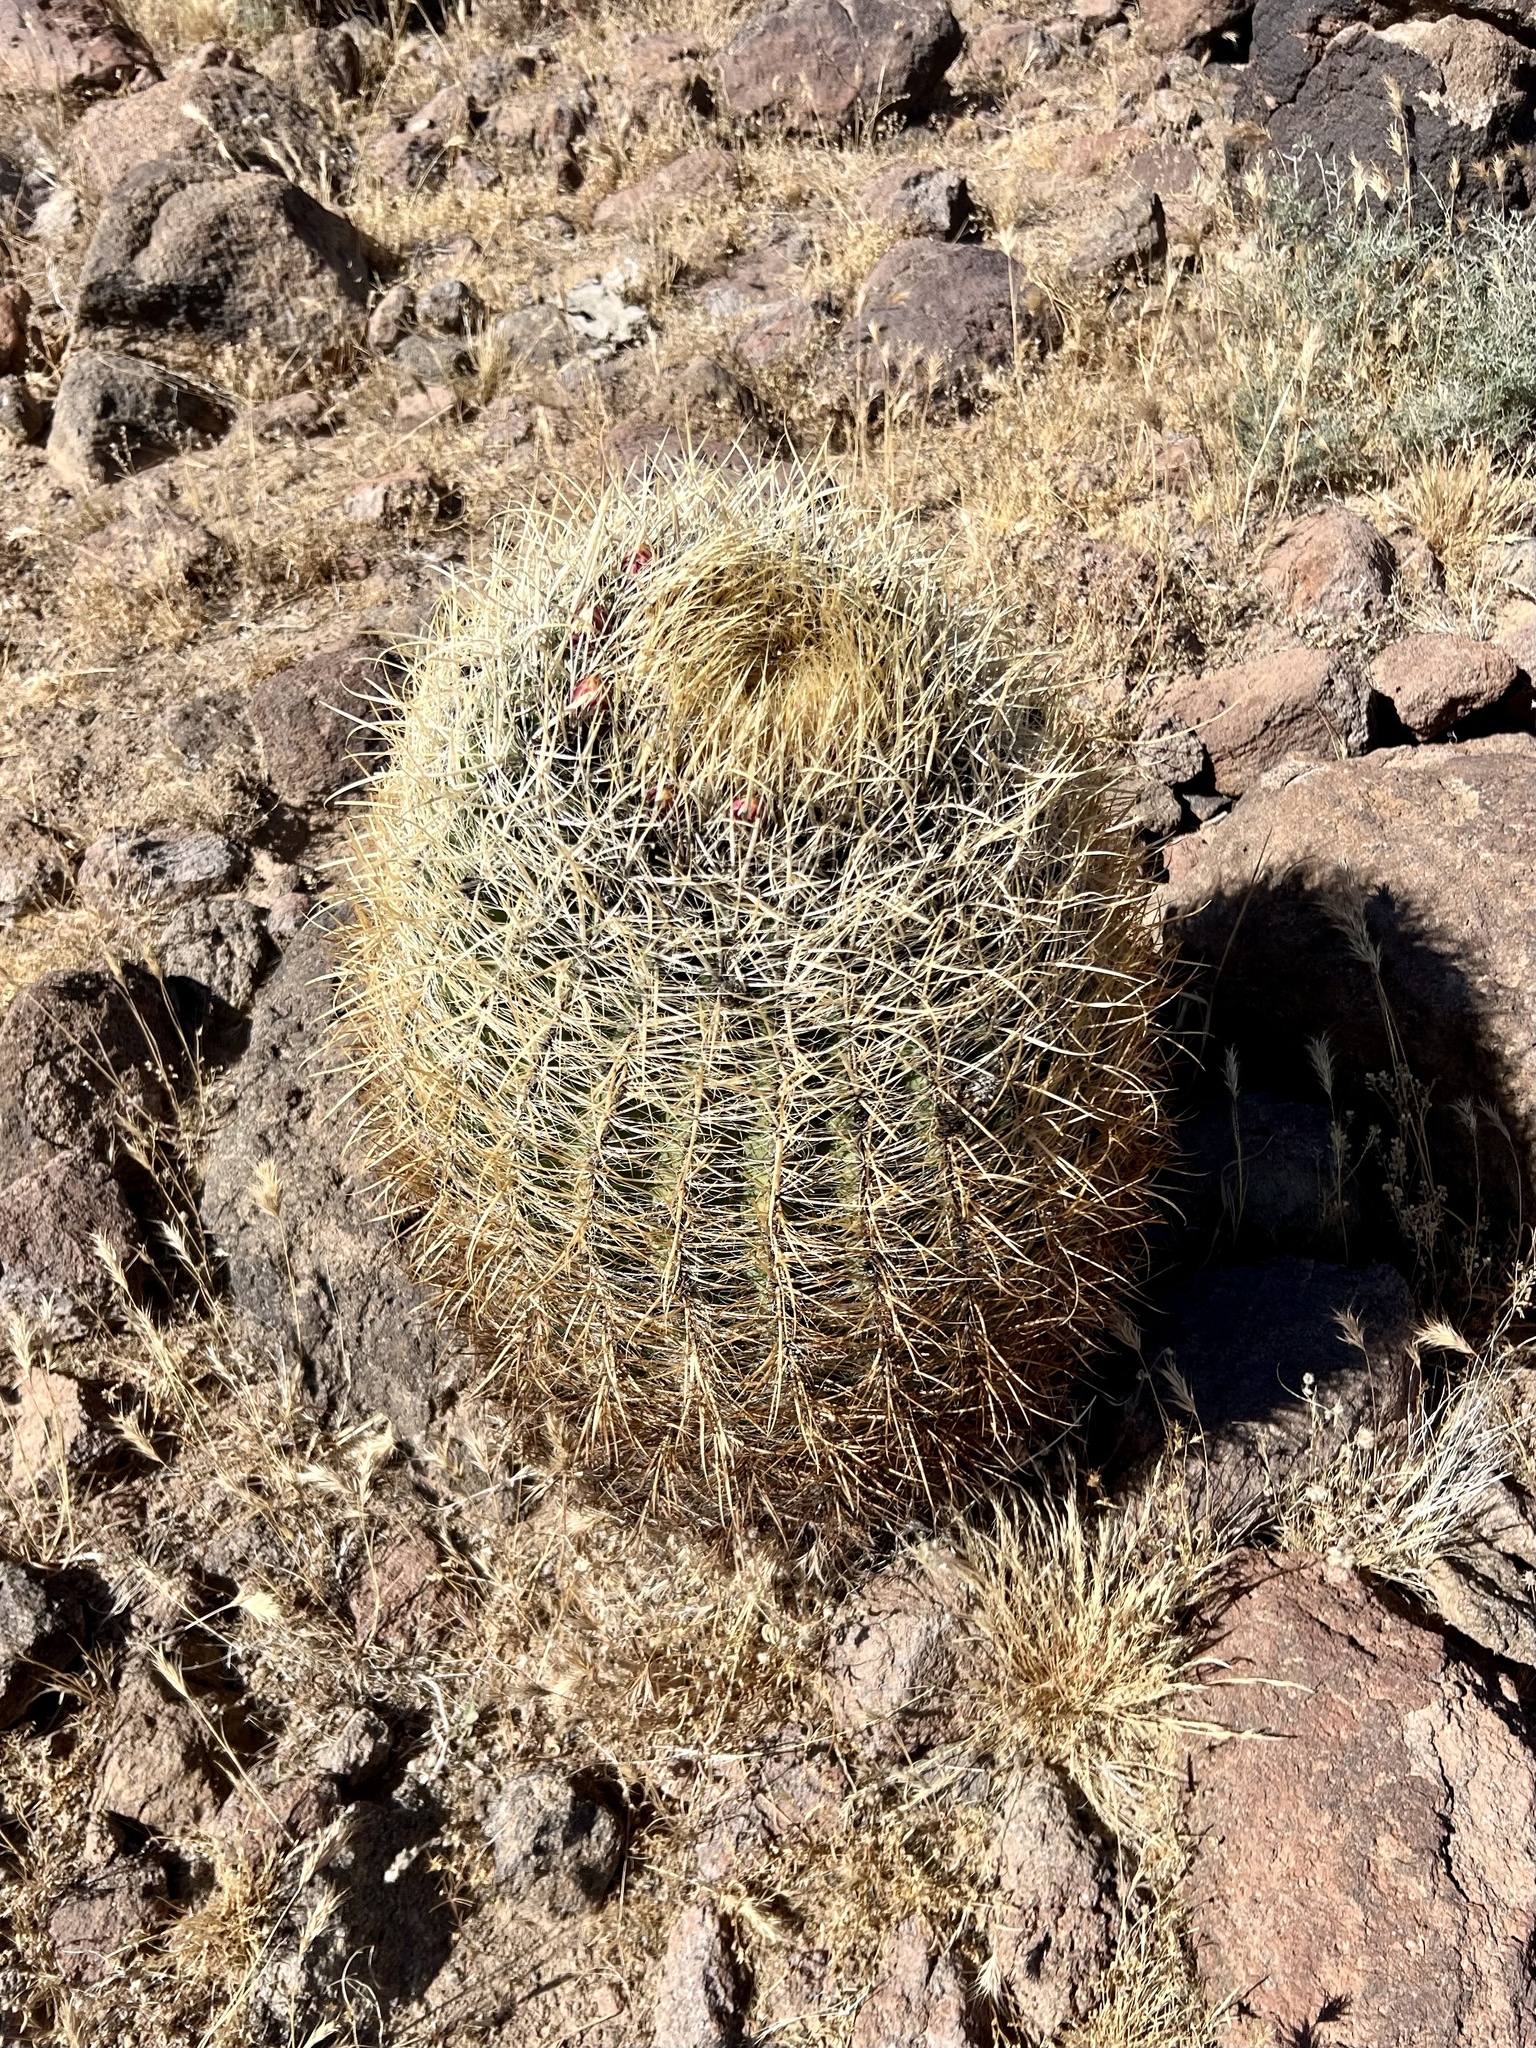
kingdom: Plantae
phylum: Tracheophyta
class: Magnoliopsida
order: Caryophyllales
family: Cactaceae
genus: Ferocactus
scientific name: Ferocactus cylindraceus
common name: California barrel cactus
